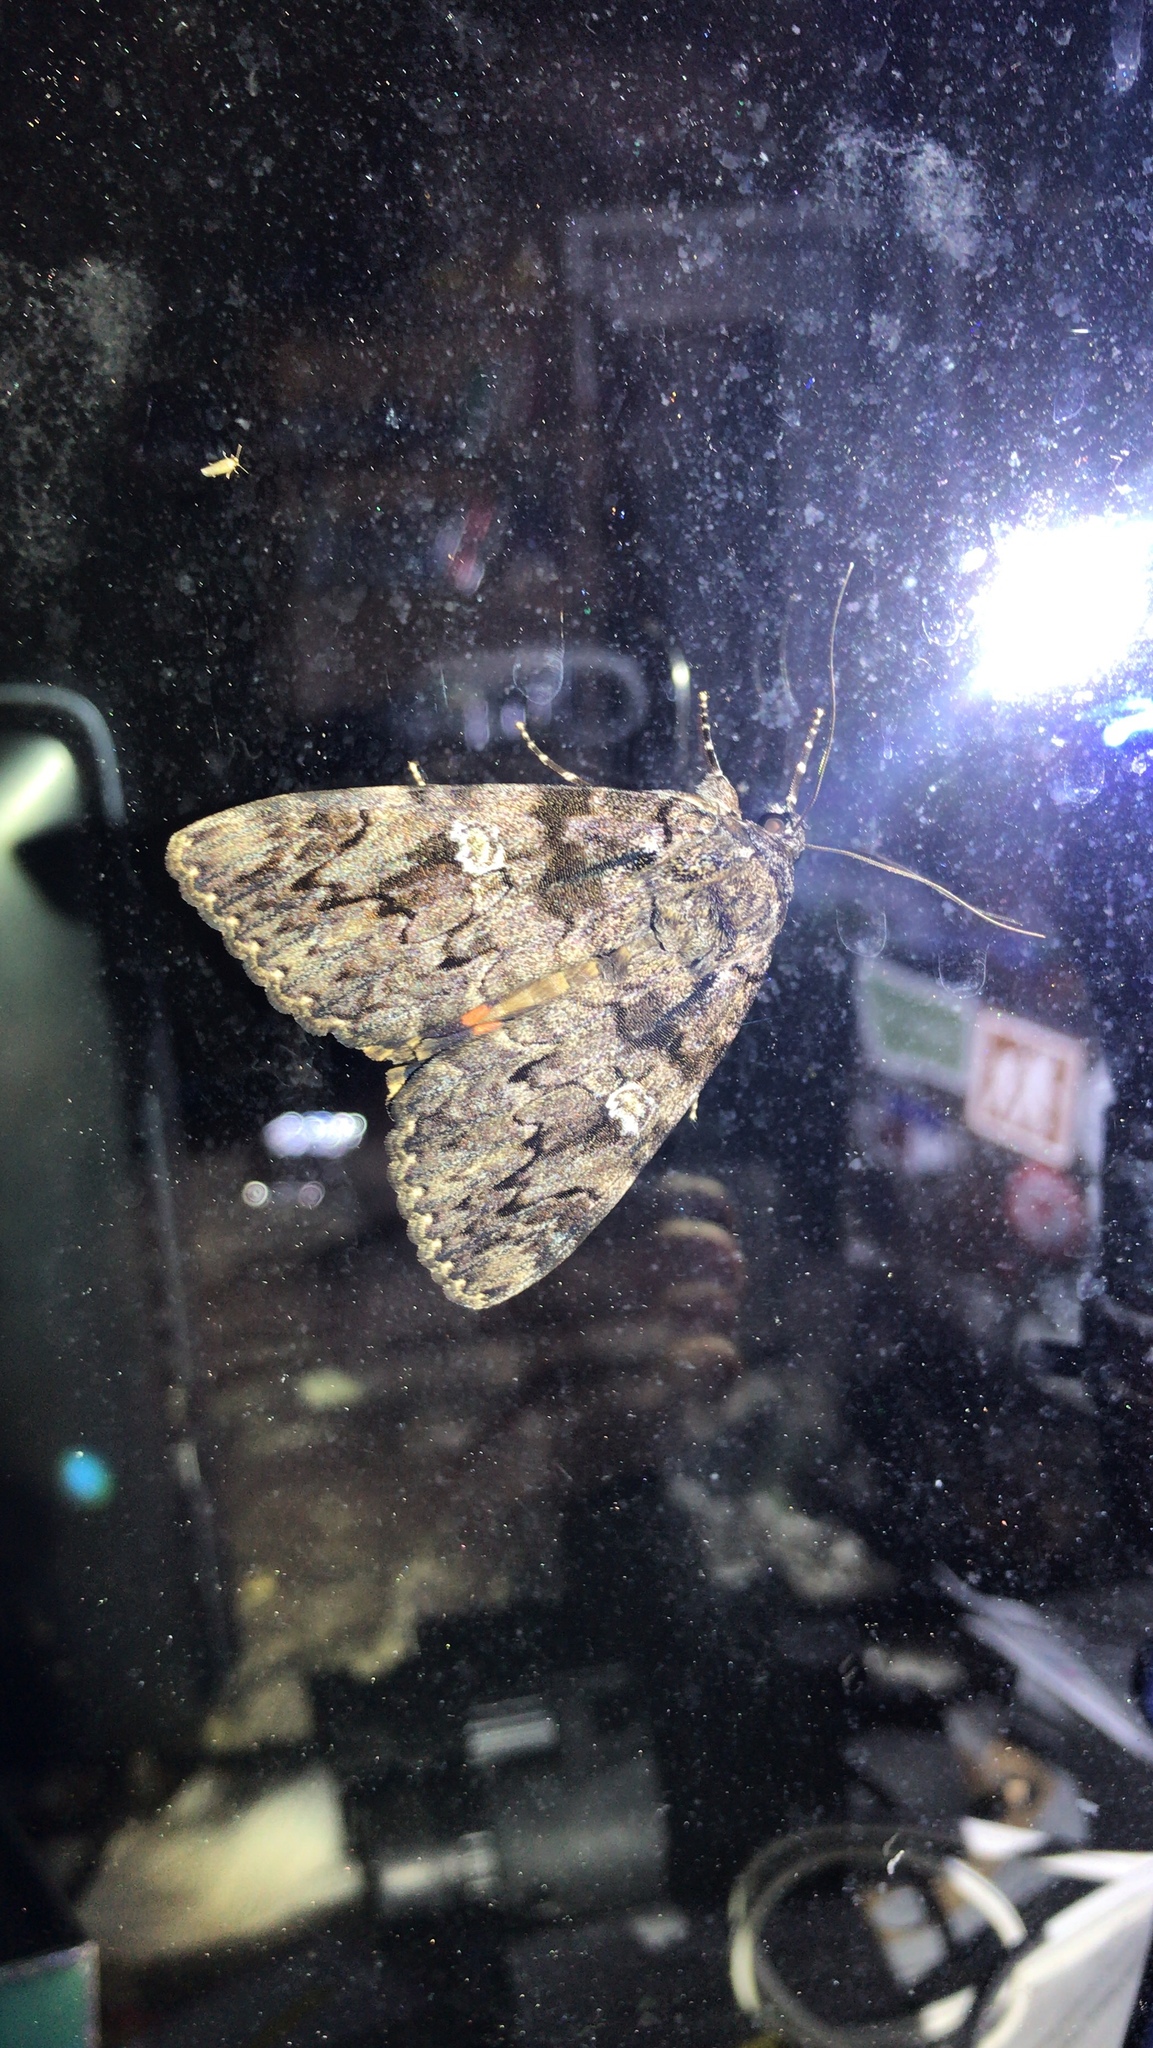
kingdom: Animalia
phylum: Arthropoda
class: Insecta
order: Lepidoptera
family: Erebidae
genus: Catocala
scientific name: Catocala ilia
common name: Ilia underwing
